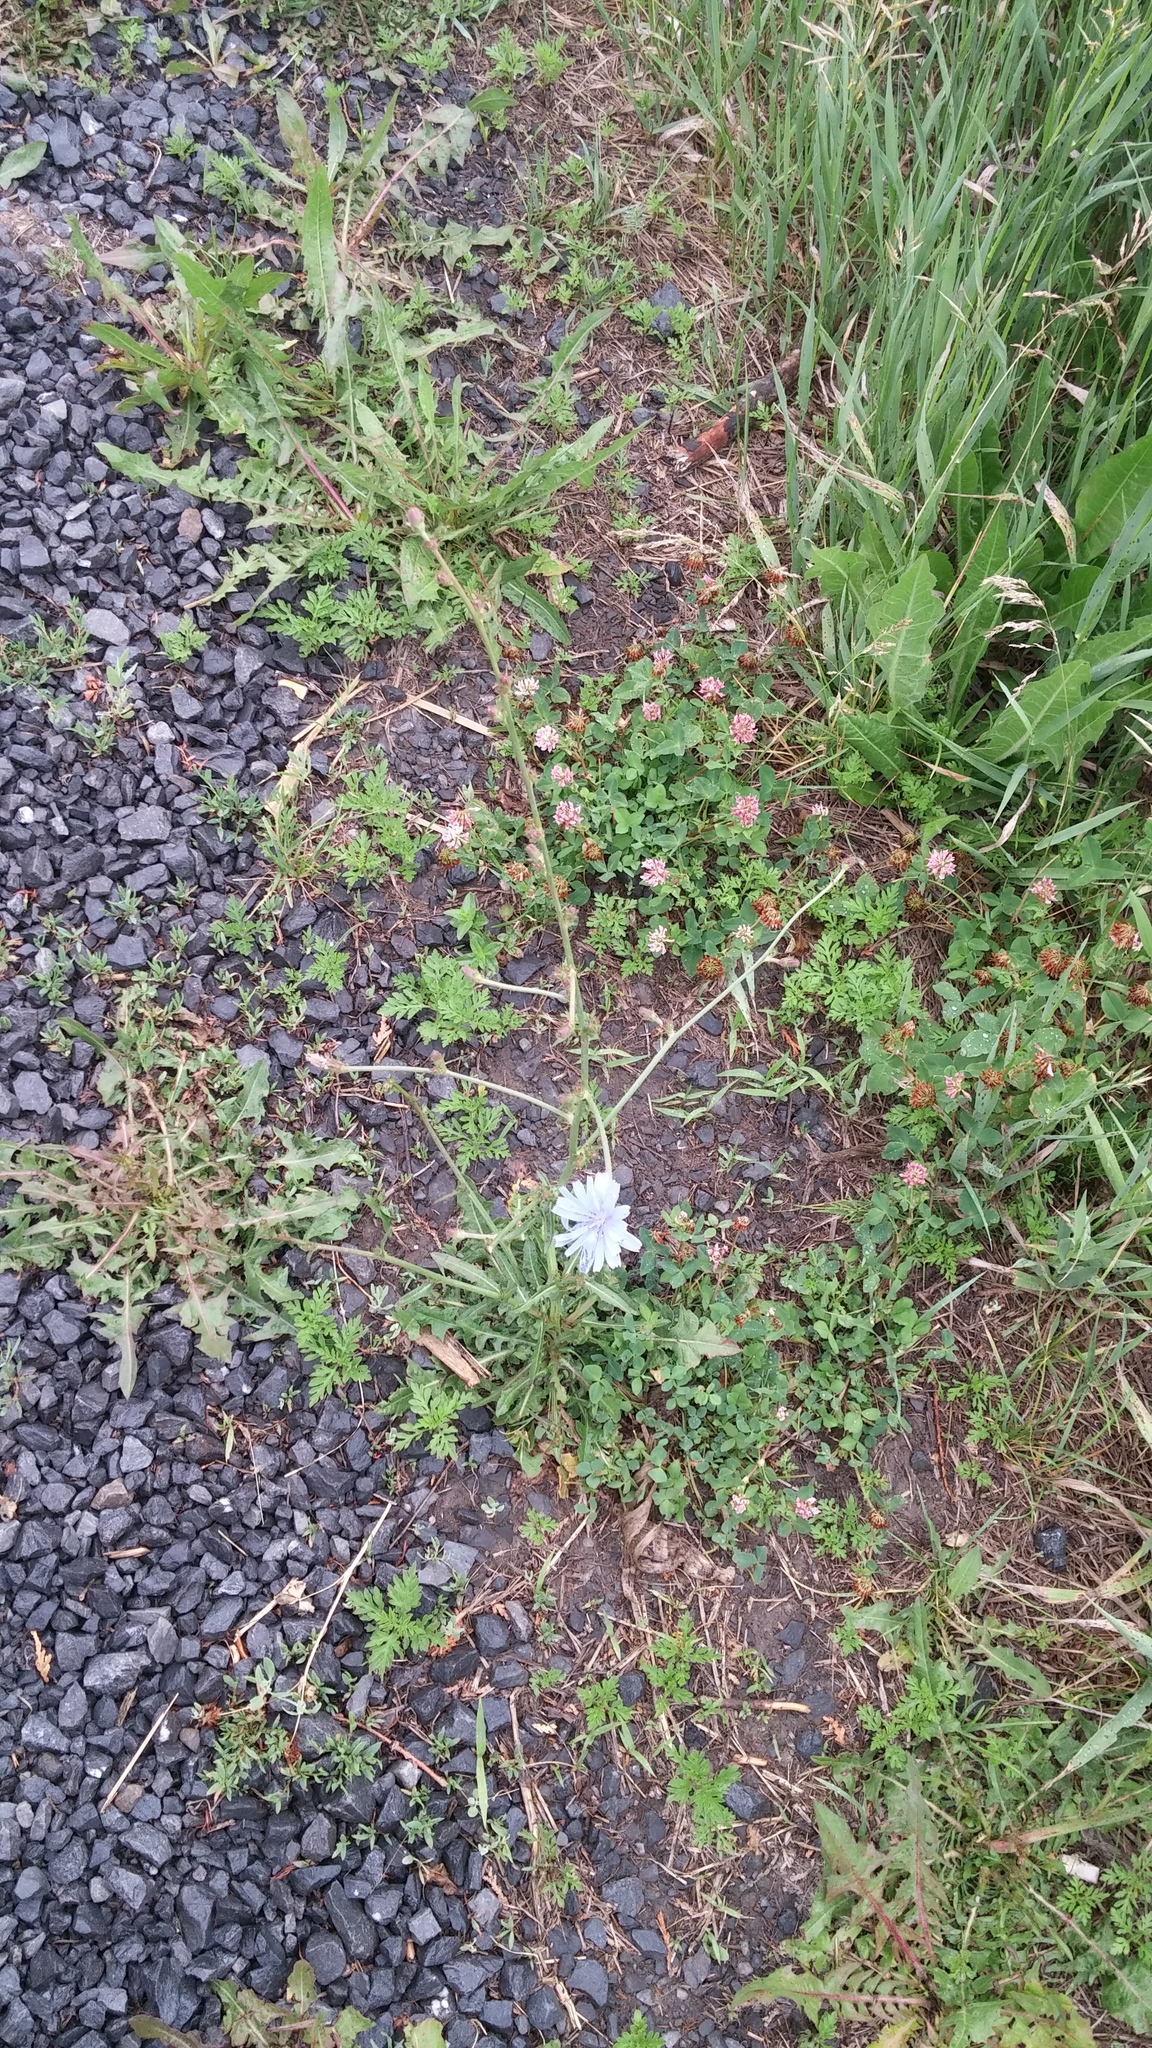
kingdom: Plantae
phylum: Tracheophyta
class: Magnoliopsida
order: Asterales
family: Asteraceae
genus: Cichorium
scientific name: Cichorium intybus
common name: Chicory
